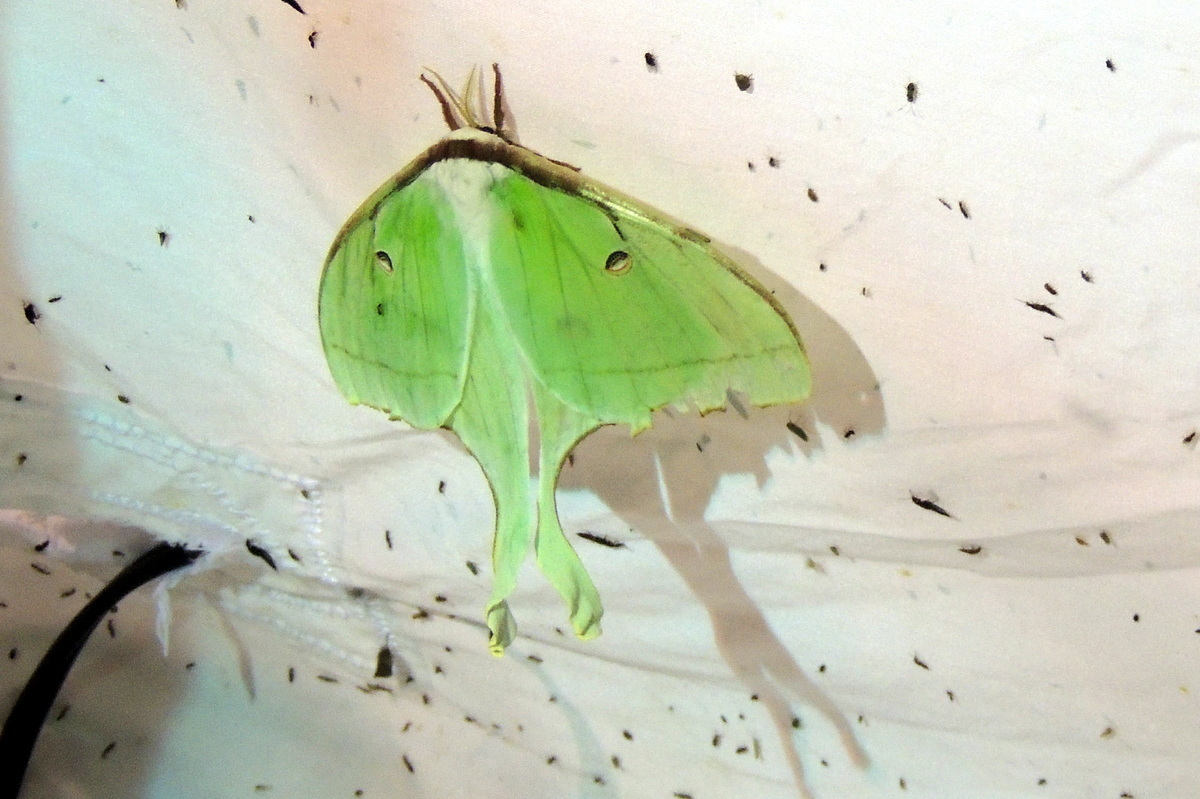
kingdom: Animalia
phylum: Arthropoda
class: Insecta
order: Lepidoptera
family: Saturniidae
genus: Actias
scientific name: Actias luna
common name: Luna moth
